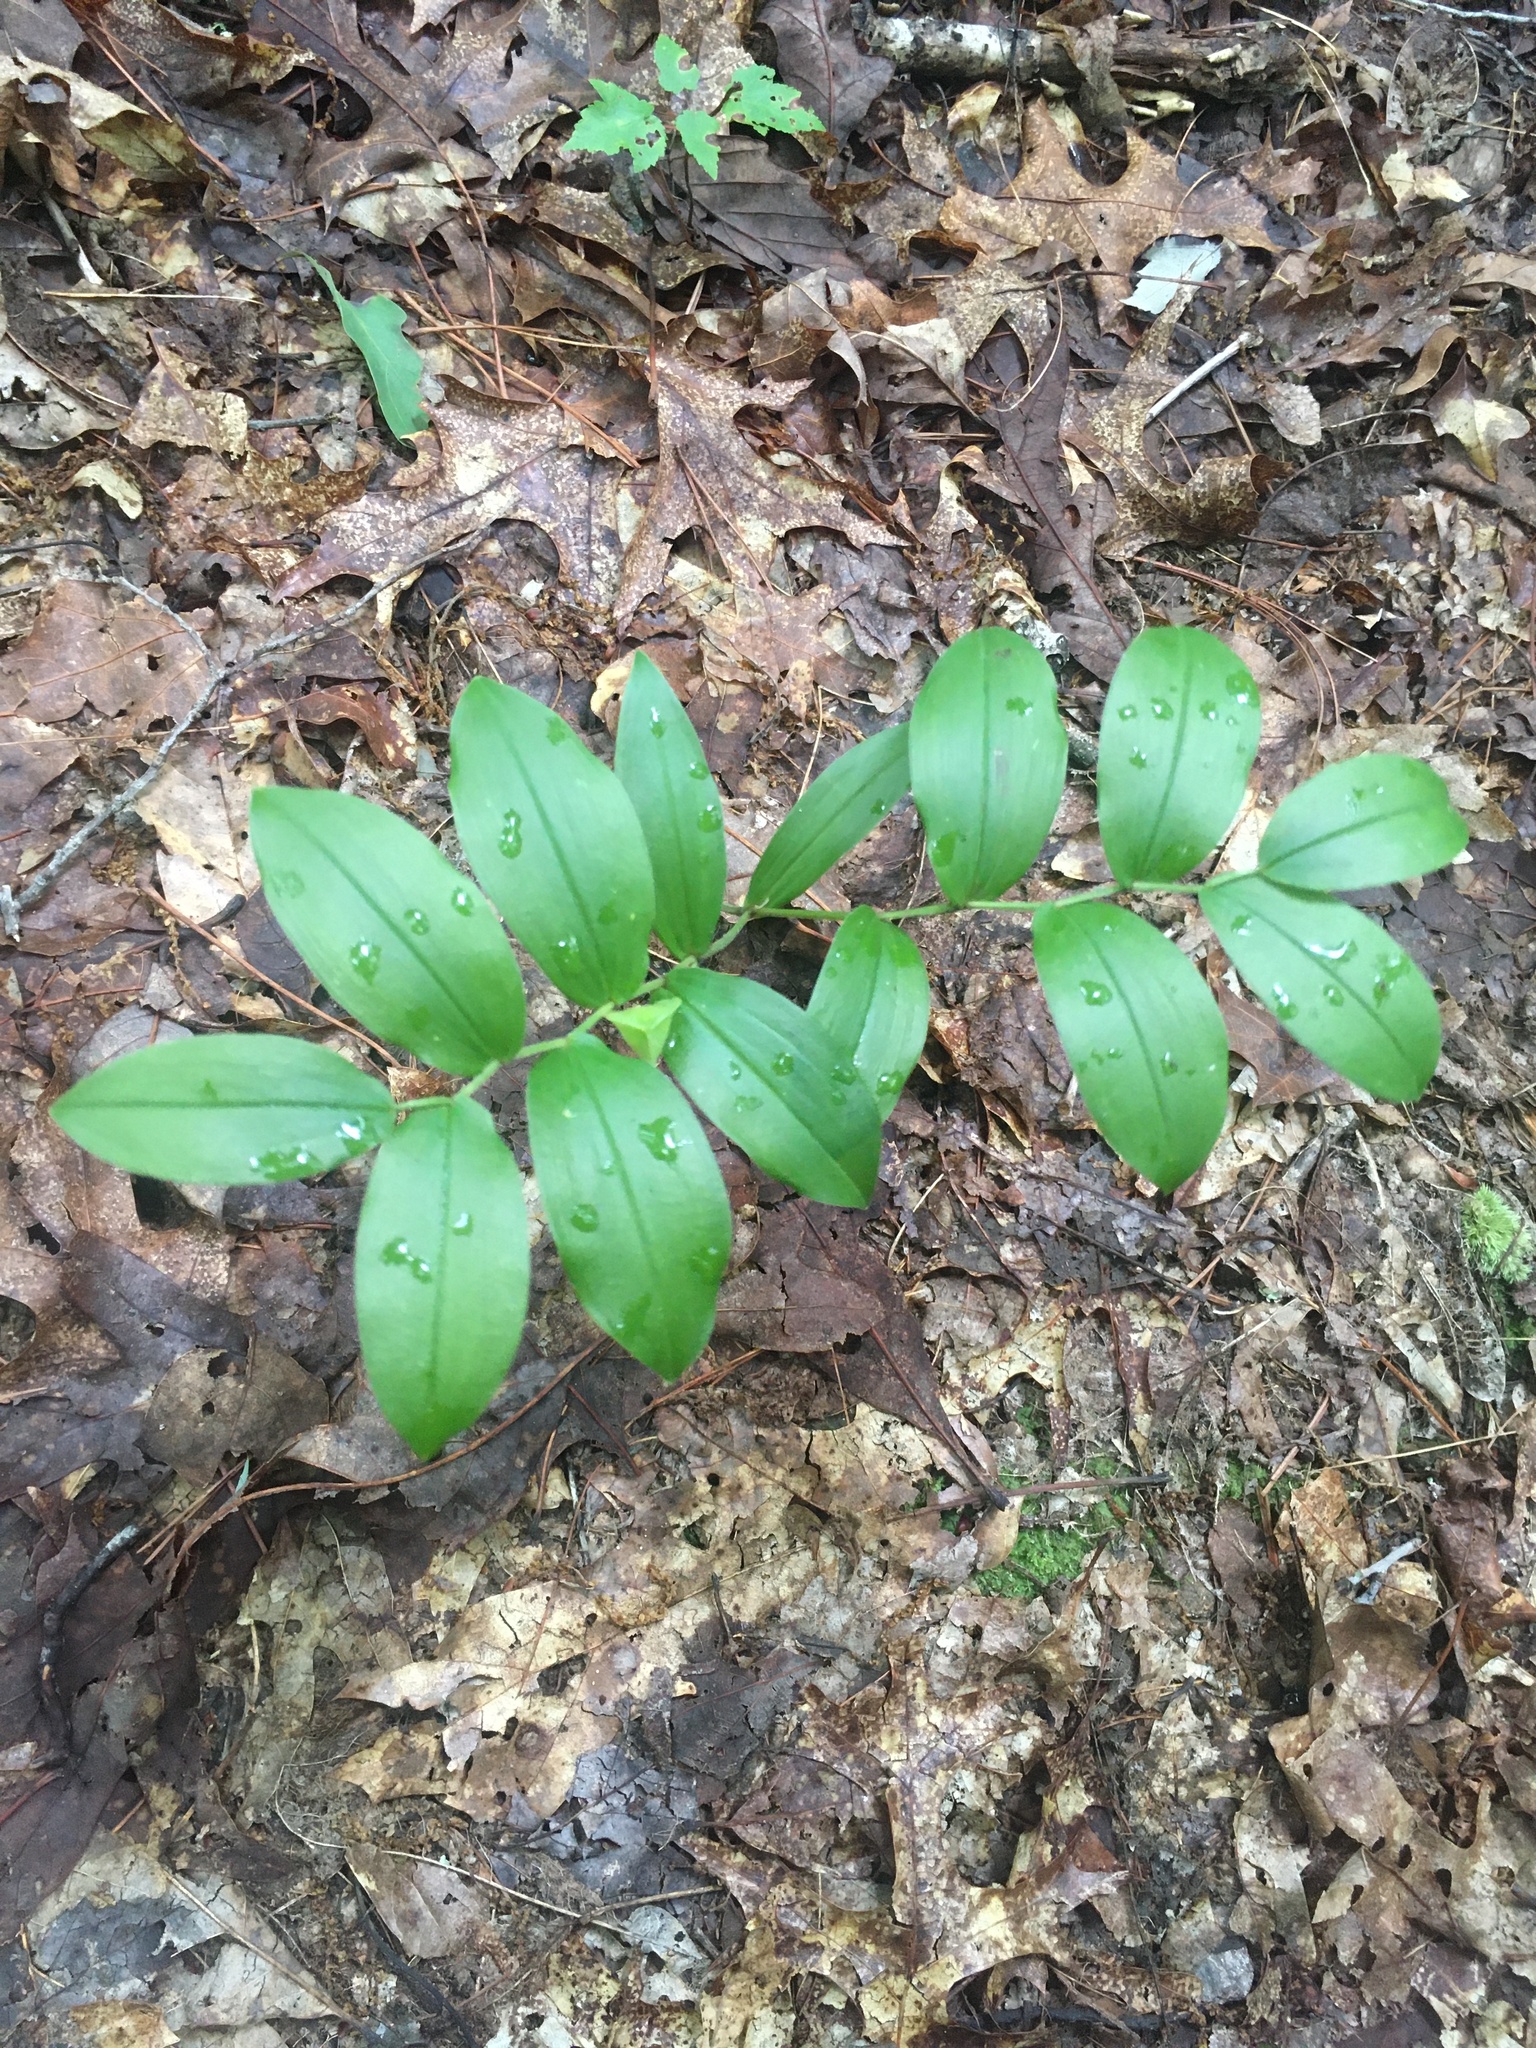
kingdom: Plantae
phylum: Tracheophyta
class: Liliopsida
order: Liliales
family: Colchicaceae
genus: Uvularia
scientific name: Uvularia puberula
